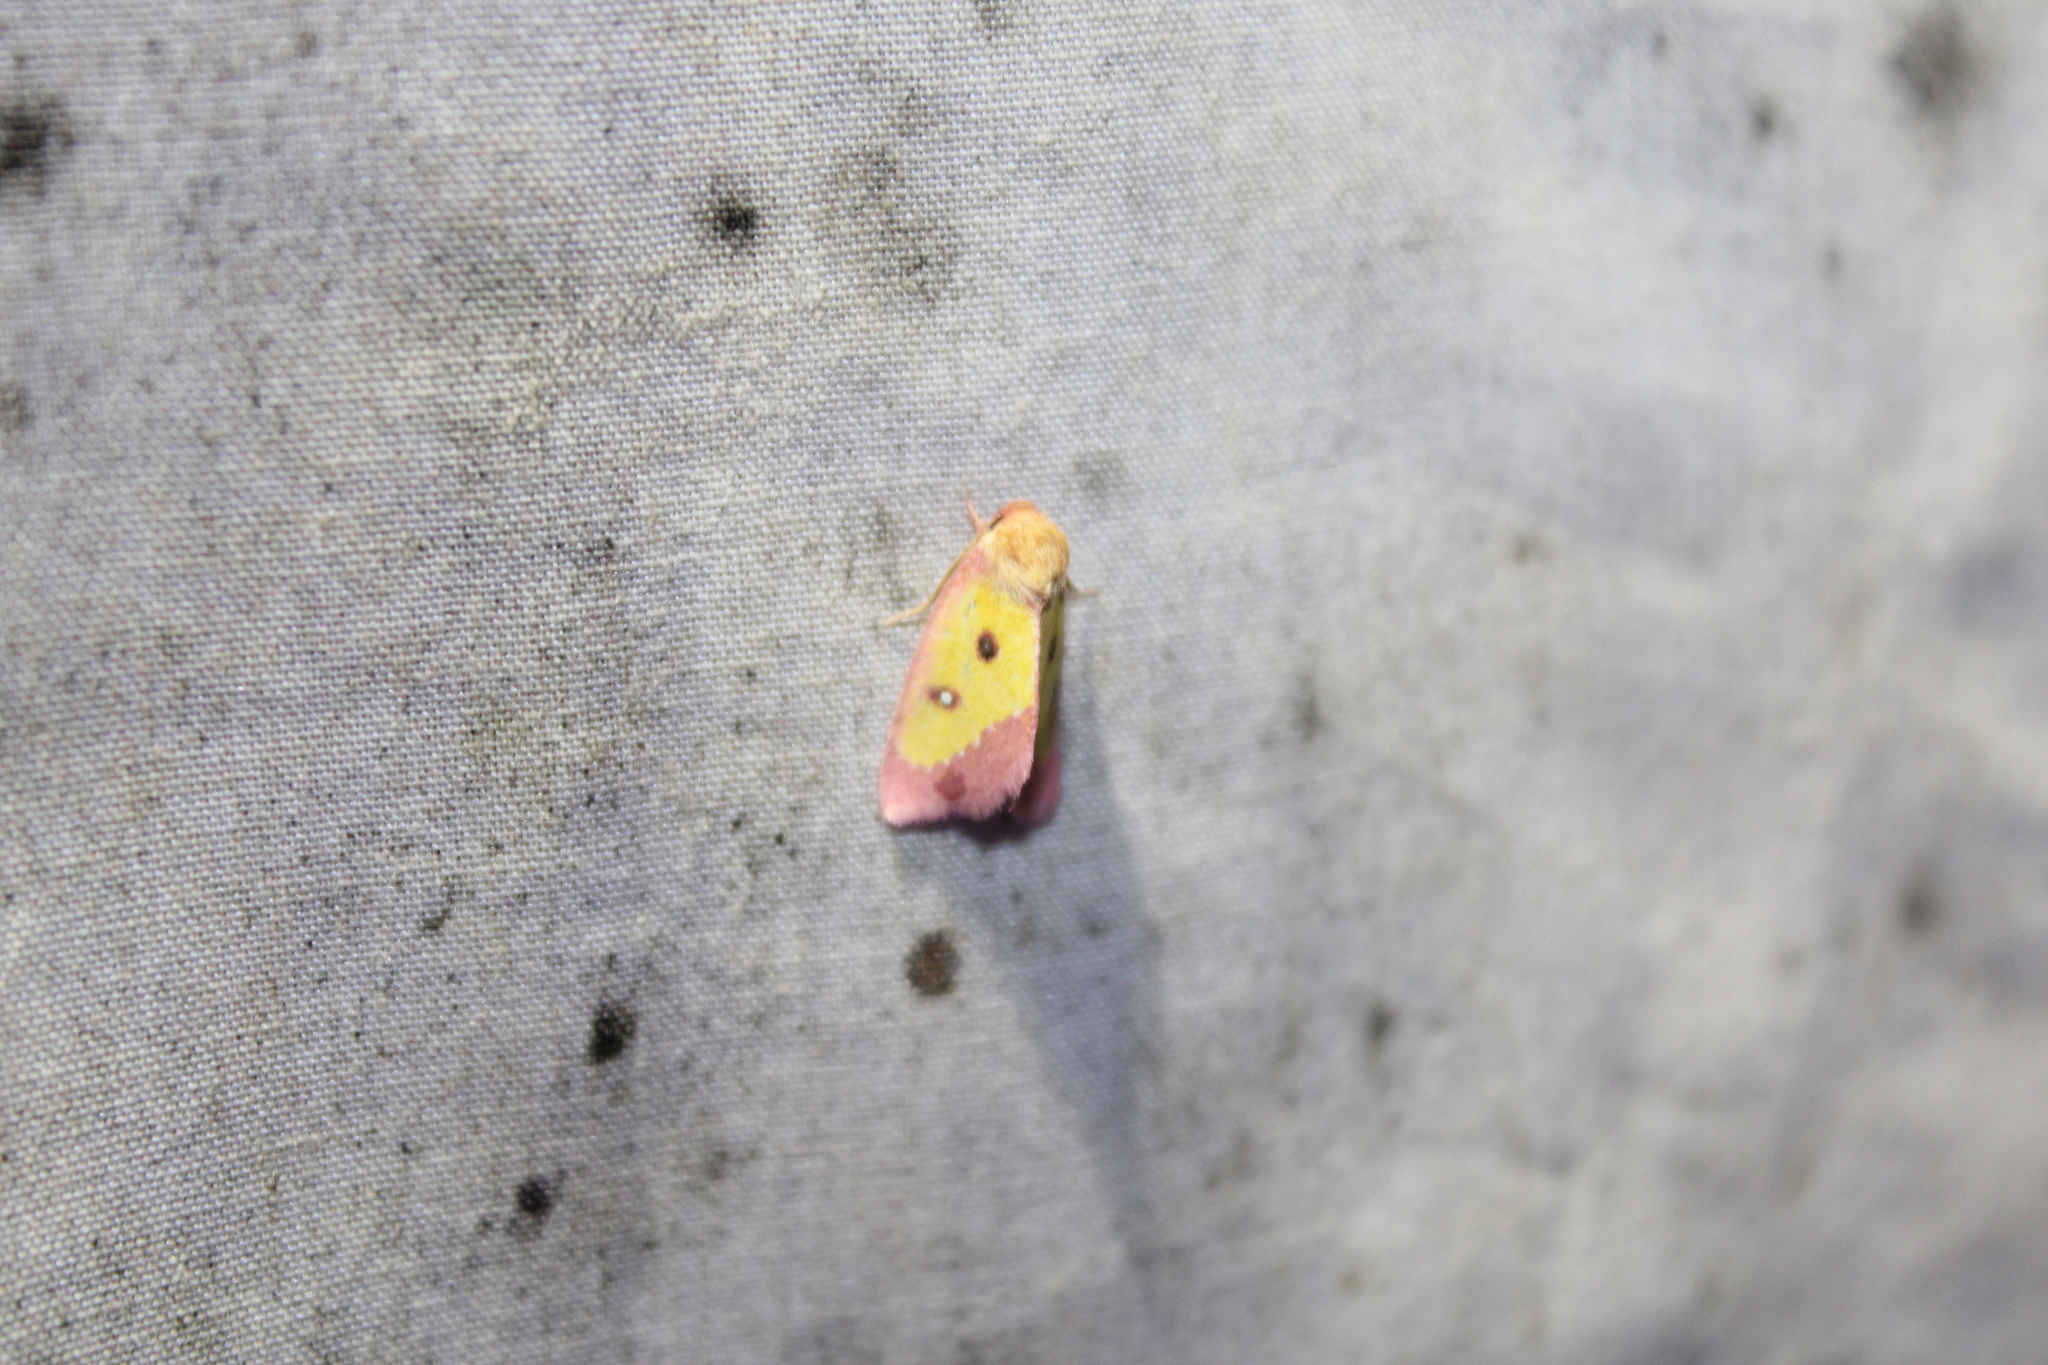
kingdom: Animalia
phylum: Arthropoda
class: Insecta
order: Lepidoptera
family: Noctuidae
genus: Derrima
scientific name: Derrima stellata
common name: Pink star moth
